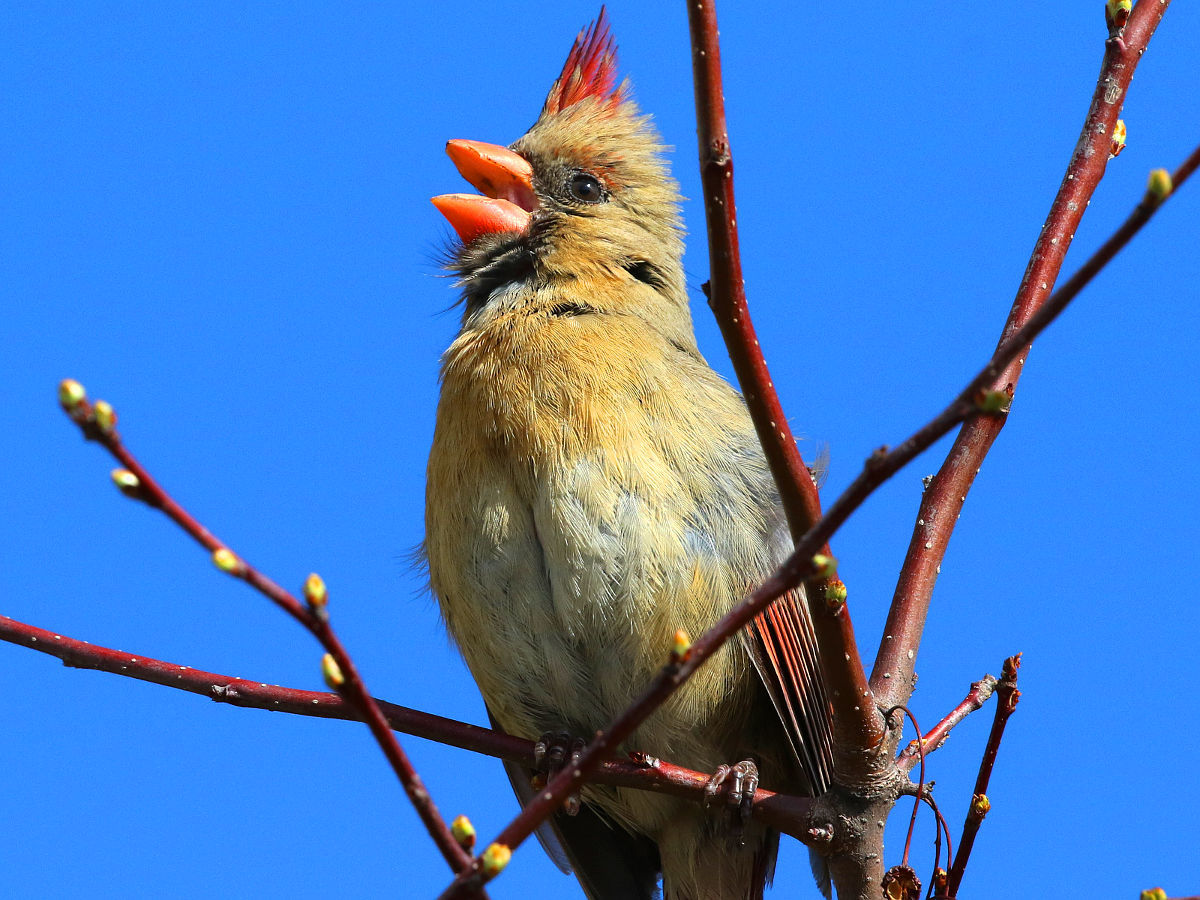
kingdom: Animalia
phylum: Chordata
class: Aves
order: Passeriformes
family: Cardinalidae
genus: Cardinalis
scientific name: Cardinalis cardinalis
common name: Northern cardinal
